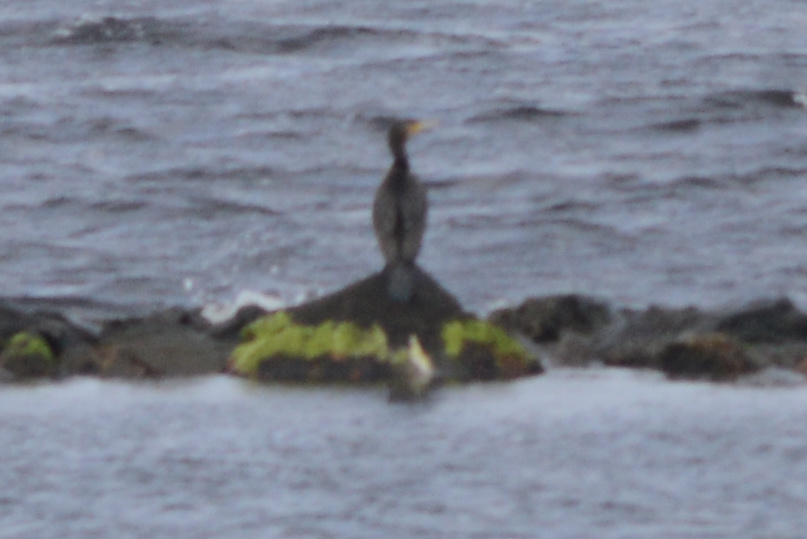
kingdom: Animalia
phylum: Chordata
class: Aves
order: Suliformes
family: Phalacrocoracidae
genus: Phalacrocorax
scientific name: Phalacrocorax carbo
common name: Great cormorant
